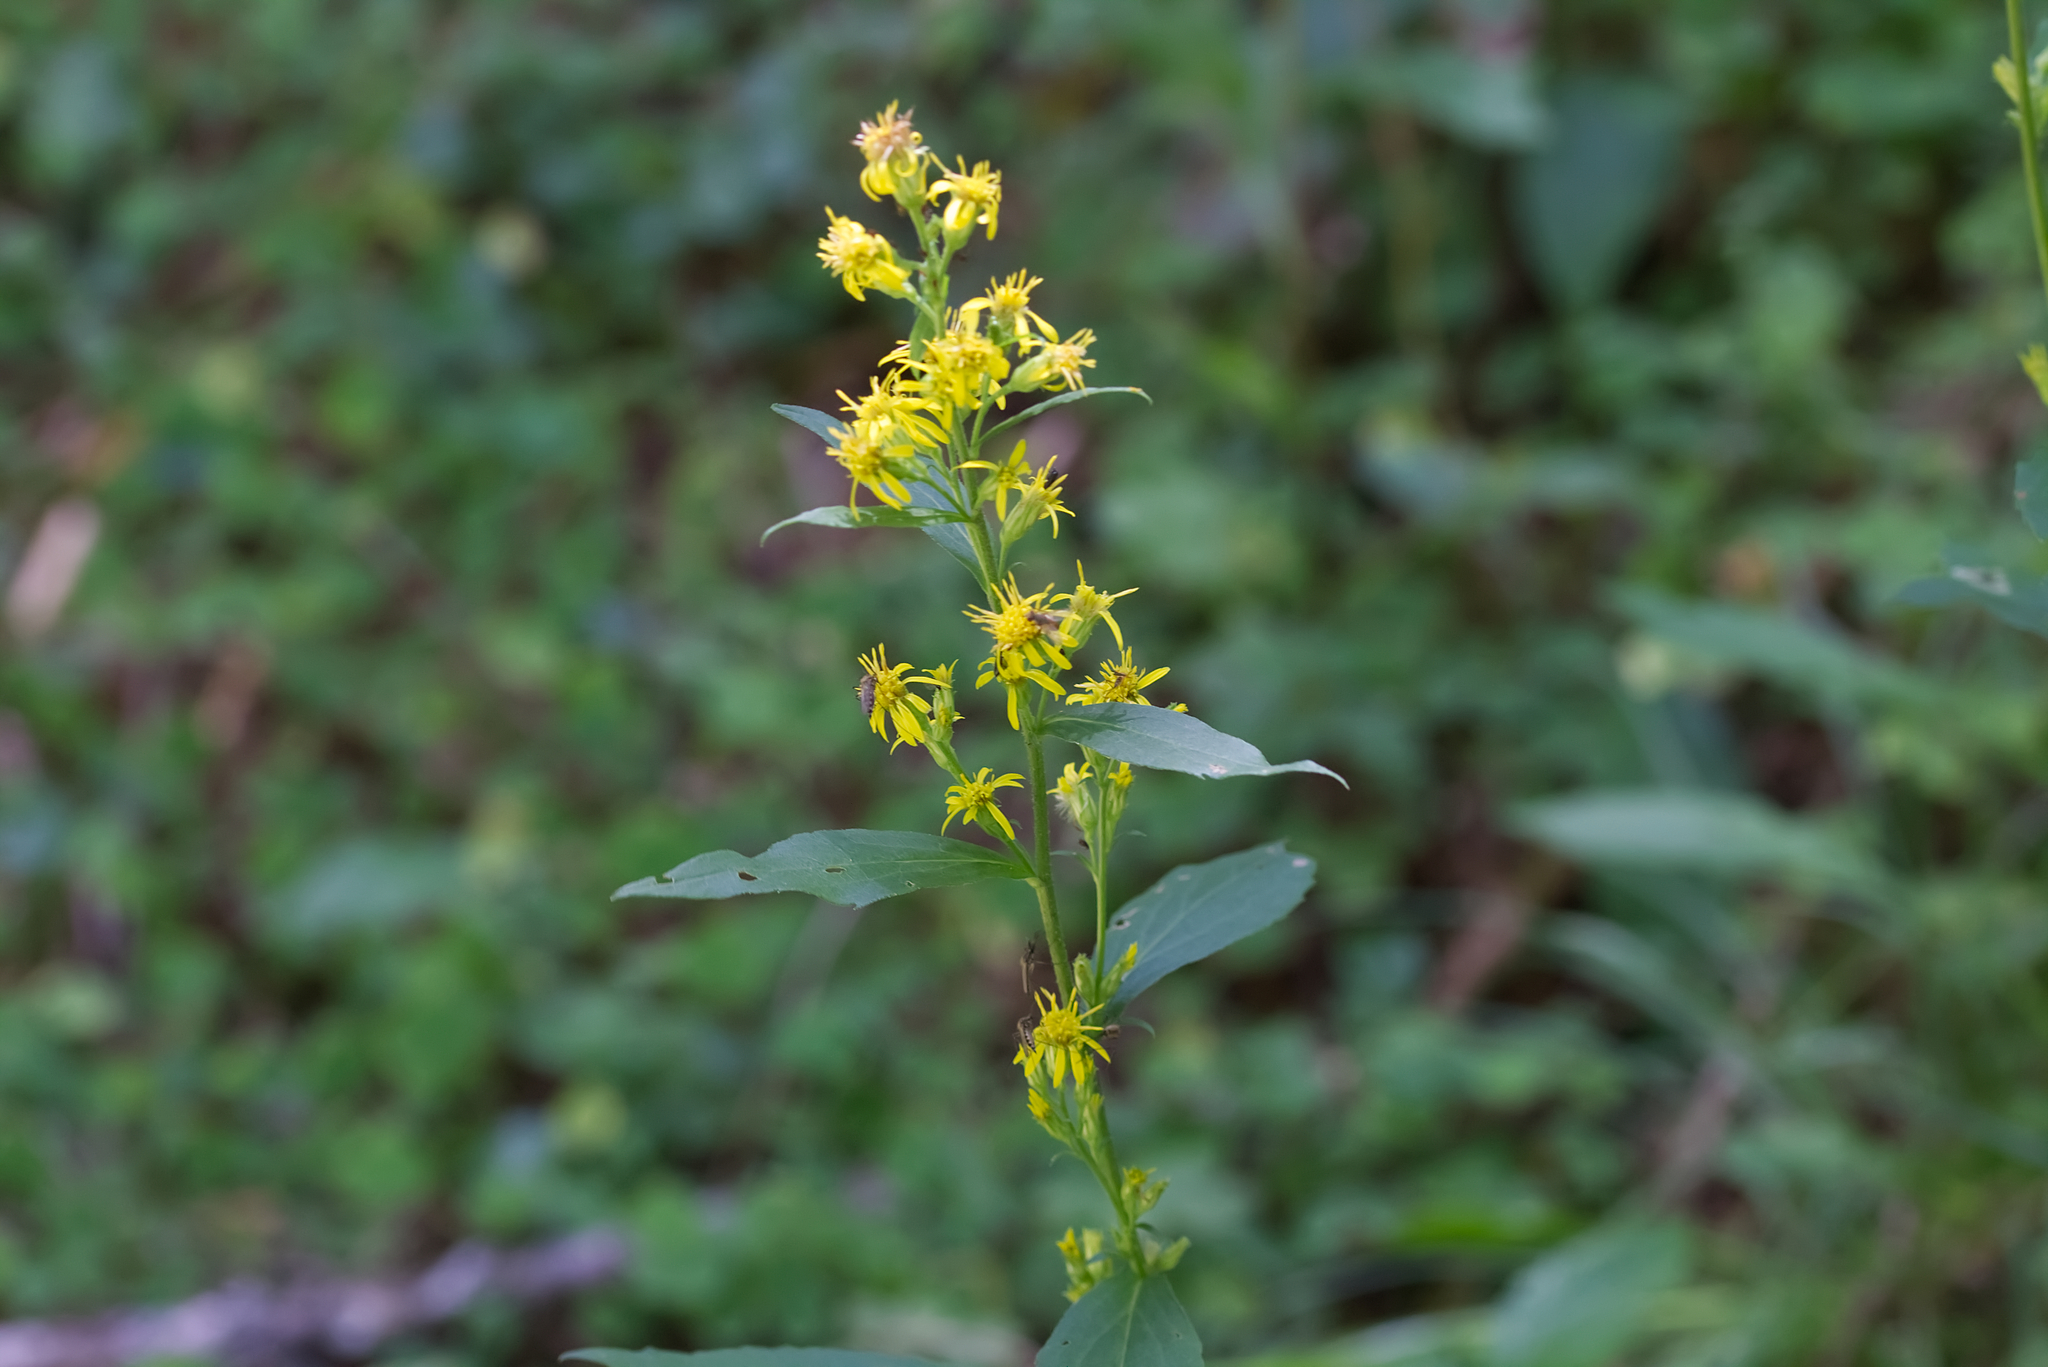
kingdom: Plantae
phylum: Tracheophyta
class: Magnoliopsida
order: Asterales
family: Asteraceae
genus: Solidago
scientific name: Solidago virgaurea
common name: Goldenrod
